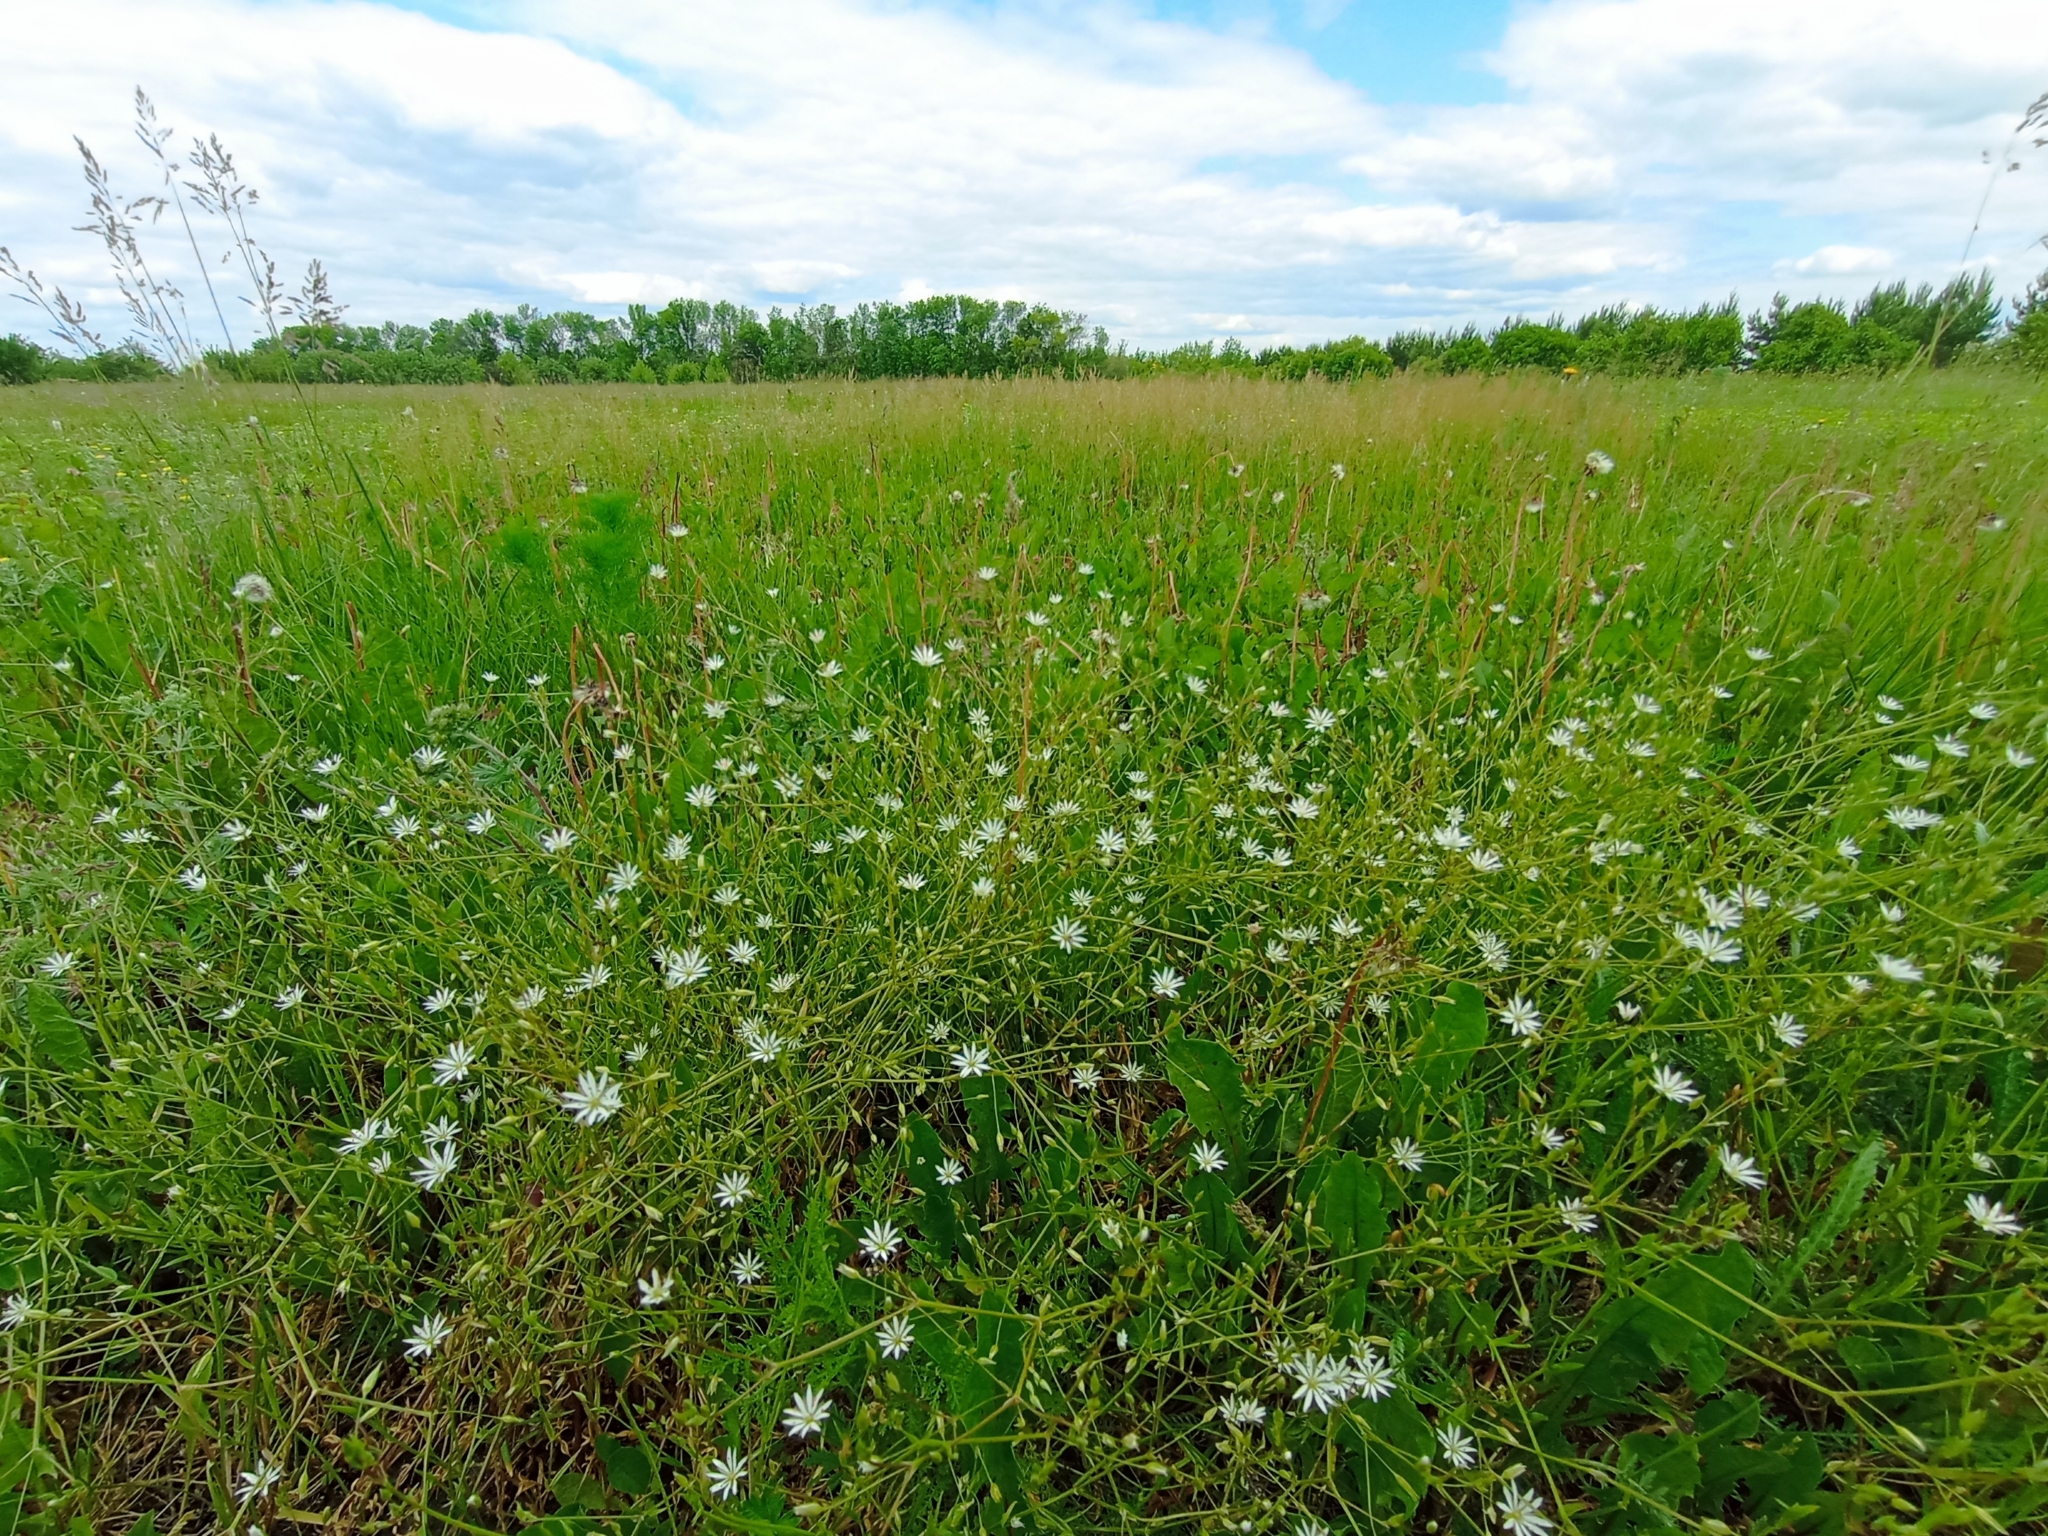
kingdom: Plantae
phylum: Tracheophyta
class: Magnoliopsida
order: Caryophyllales
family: Caryophyllaceae
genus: Stellaria
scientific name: Stellaria graminea
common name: Grass-like starwort
